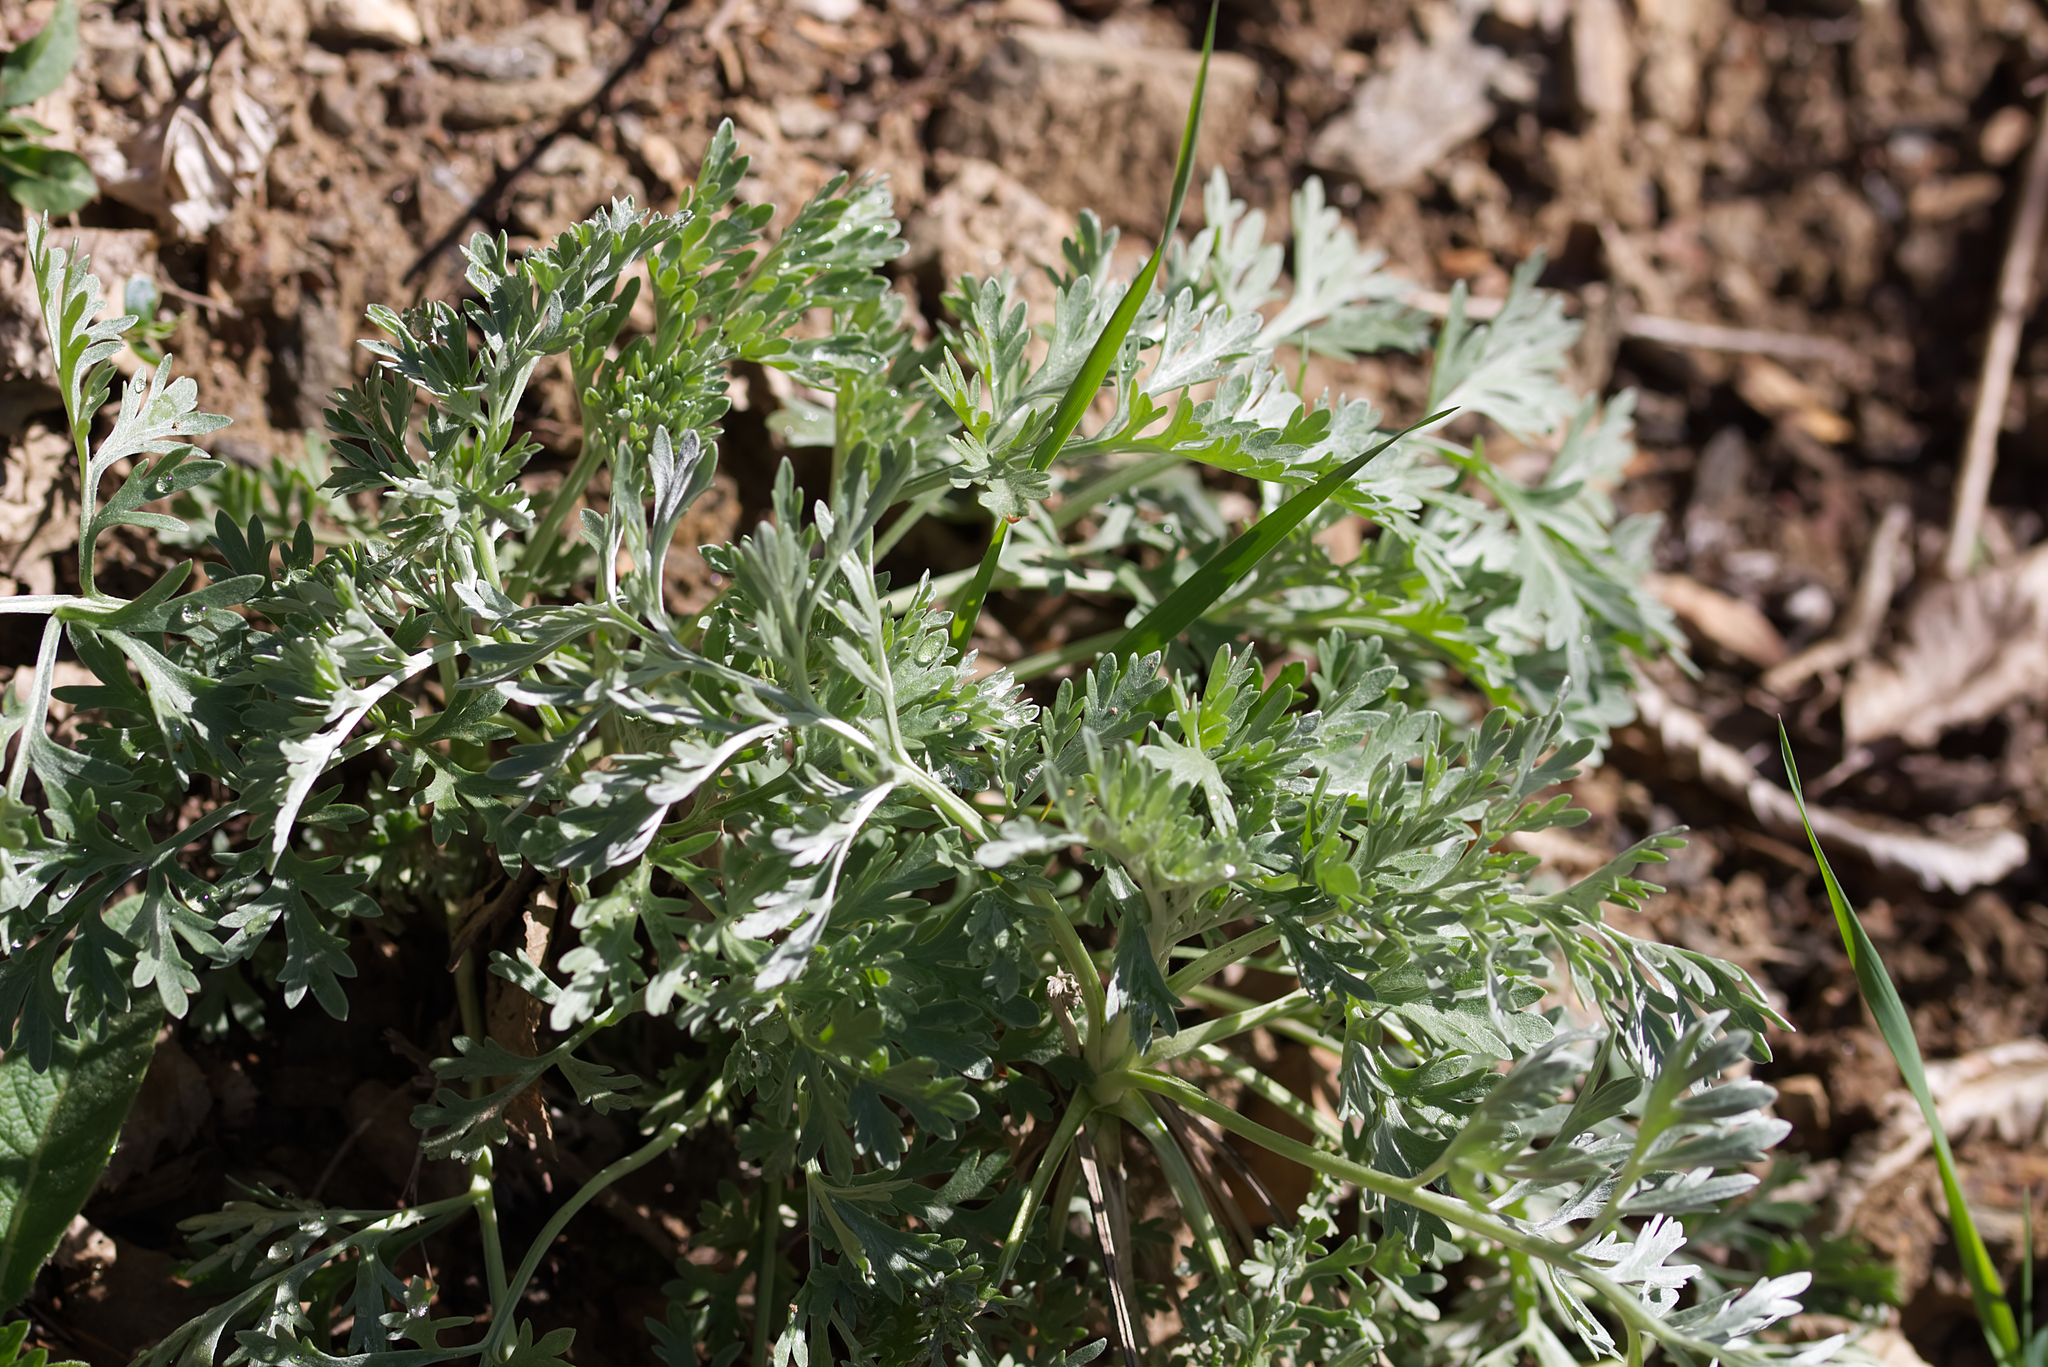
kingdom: Plantae
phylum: Tracheophyta
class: Magnoliopsida
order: Asterales
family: Asteraceae
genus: Artemisia
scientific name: Artemisia absinthium
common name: Wormwood
